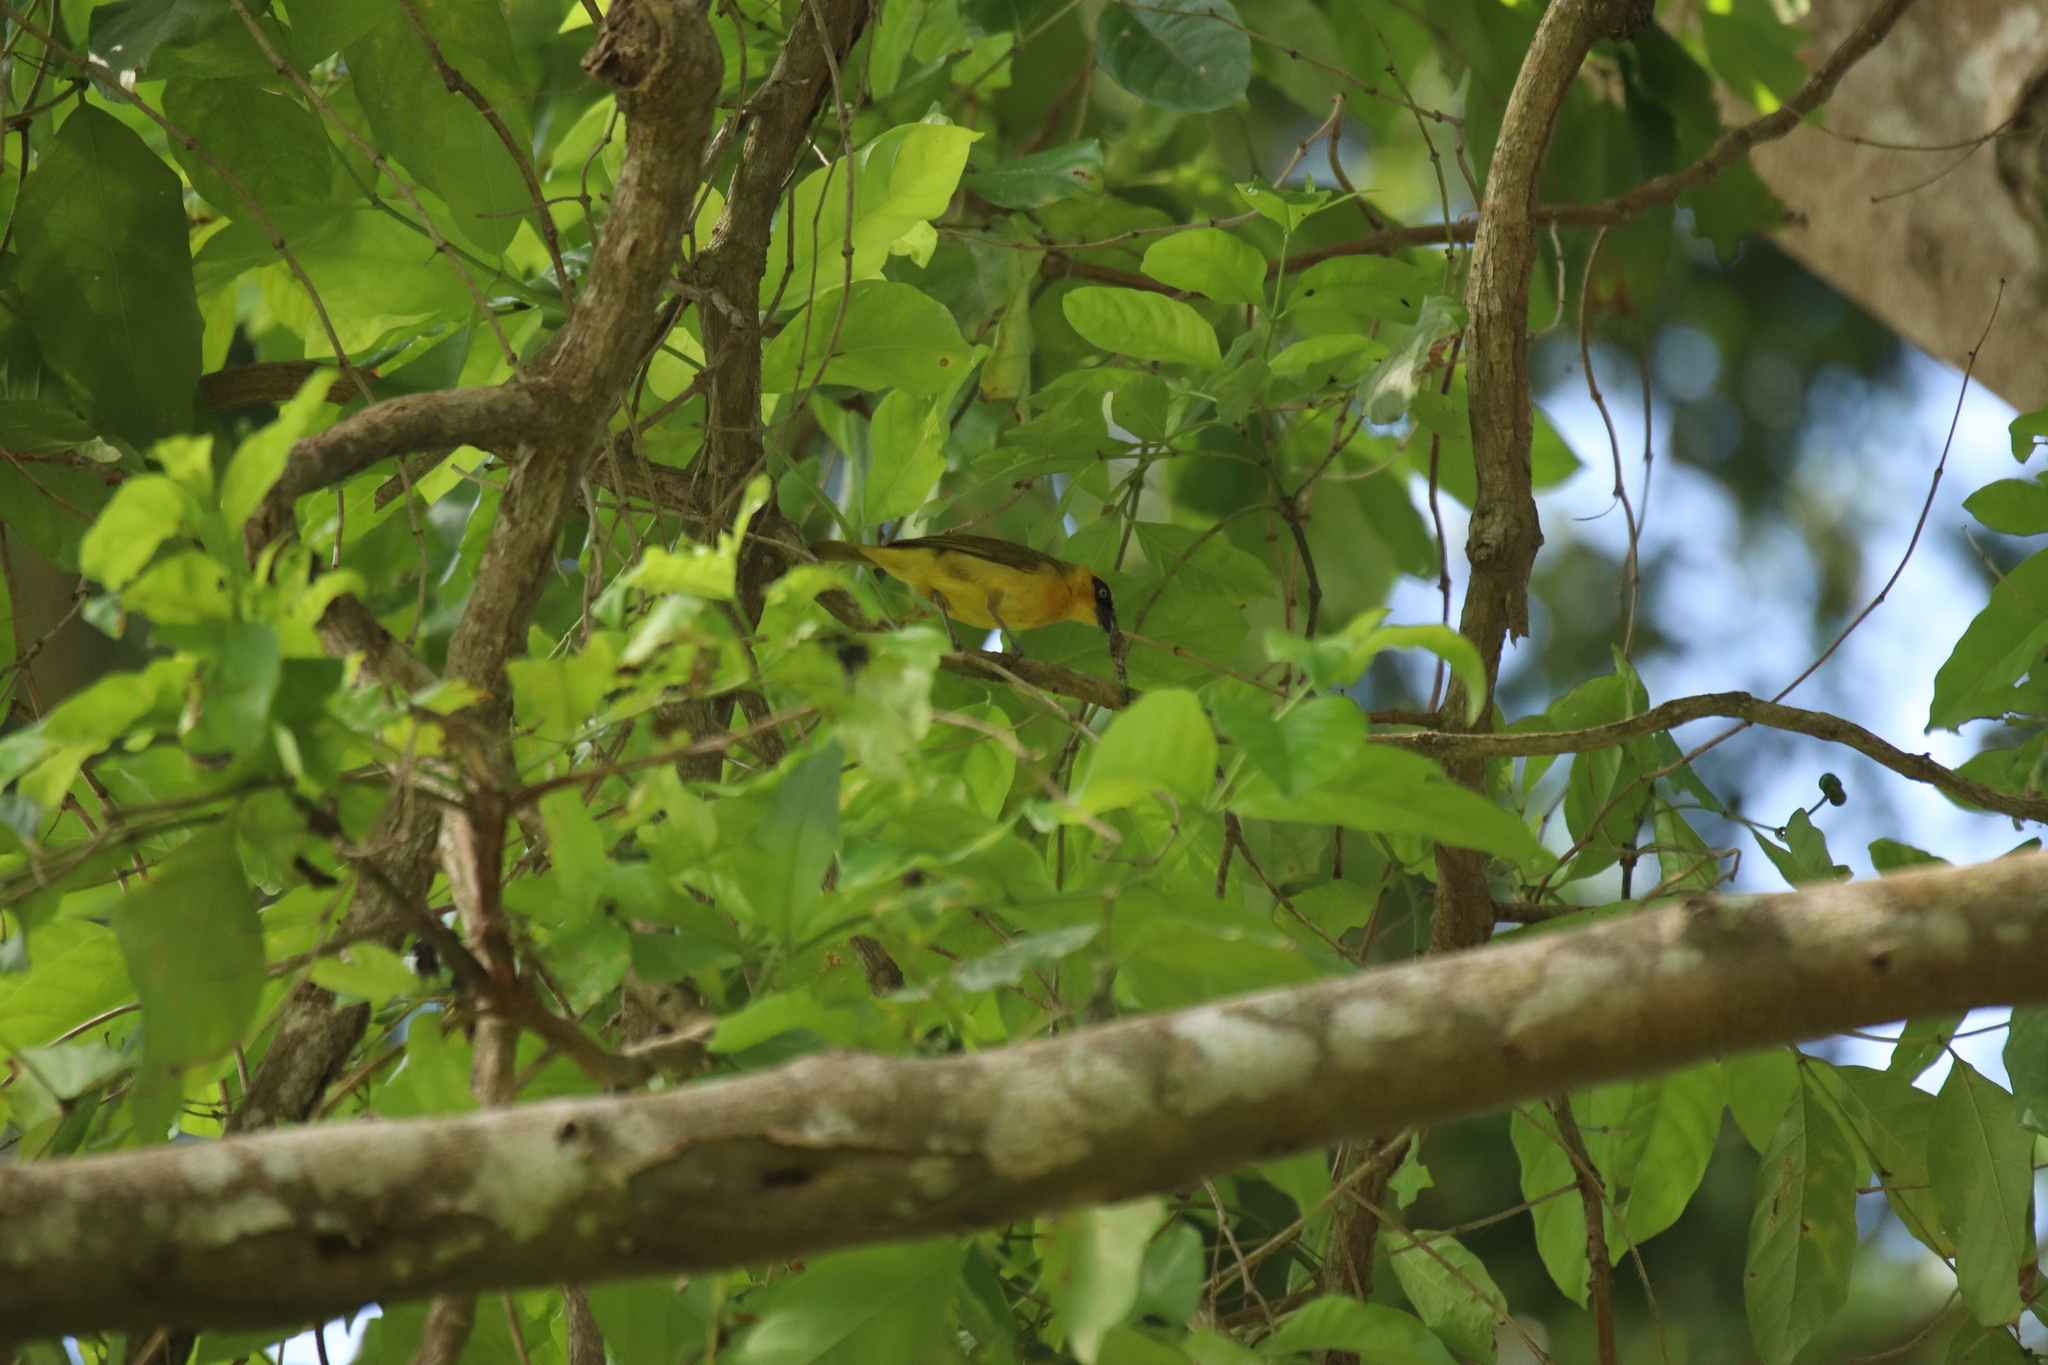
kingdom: Animalia
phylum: Chordata
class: Aves
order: Passeriformes
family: Ploceidae
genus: Ploceus
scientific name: Ploceus brachypterus
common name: Olive-naped weaver
